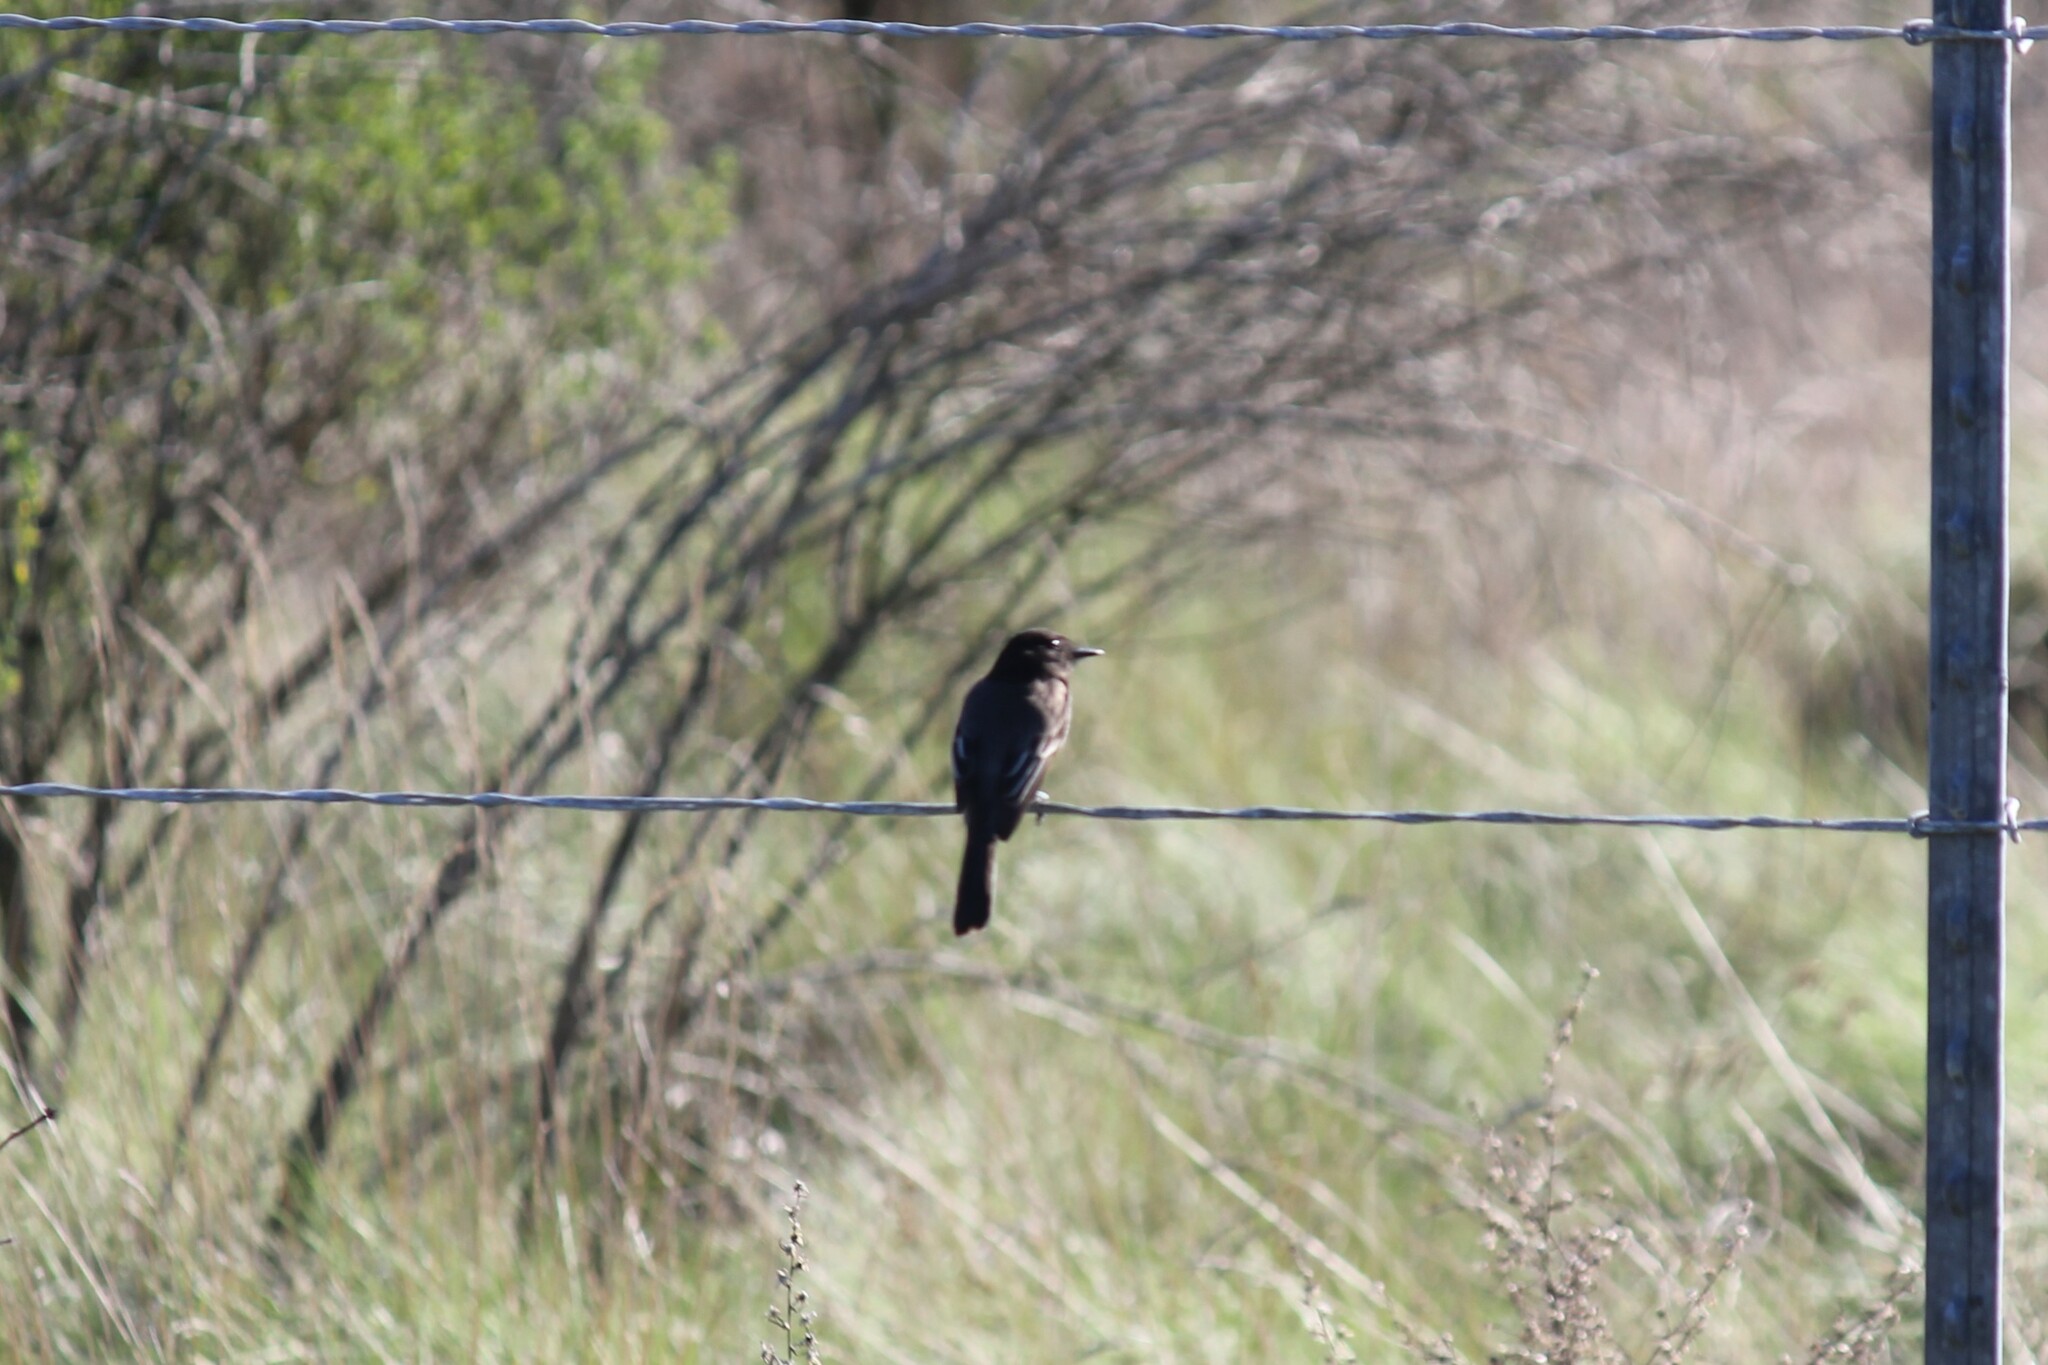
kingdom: Animalia
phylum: Chordata
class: Aves
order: Passeriformes
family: Tyrannidae
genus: Sayornis
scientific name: Sayornis nigricans
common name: Black phoebe
